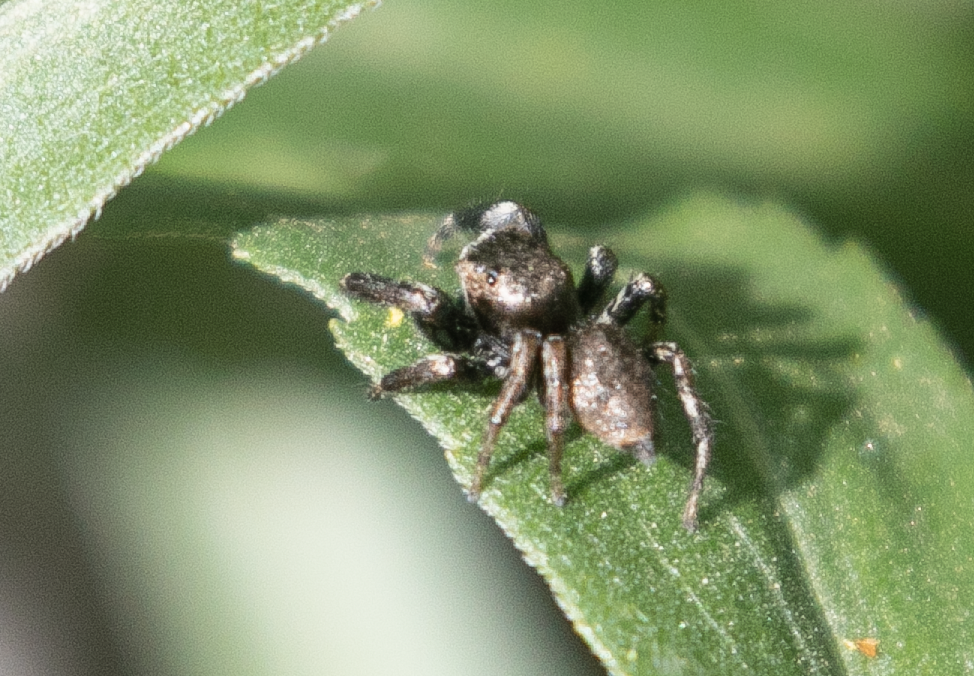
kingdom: Animalia
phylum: Arthropoda
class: Arachnida
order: Araneae
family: Salticidae
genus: Evarcha
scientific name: Evarcha arcuata
